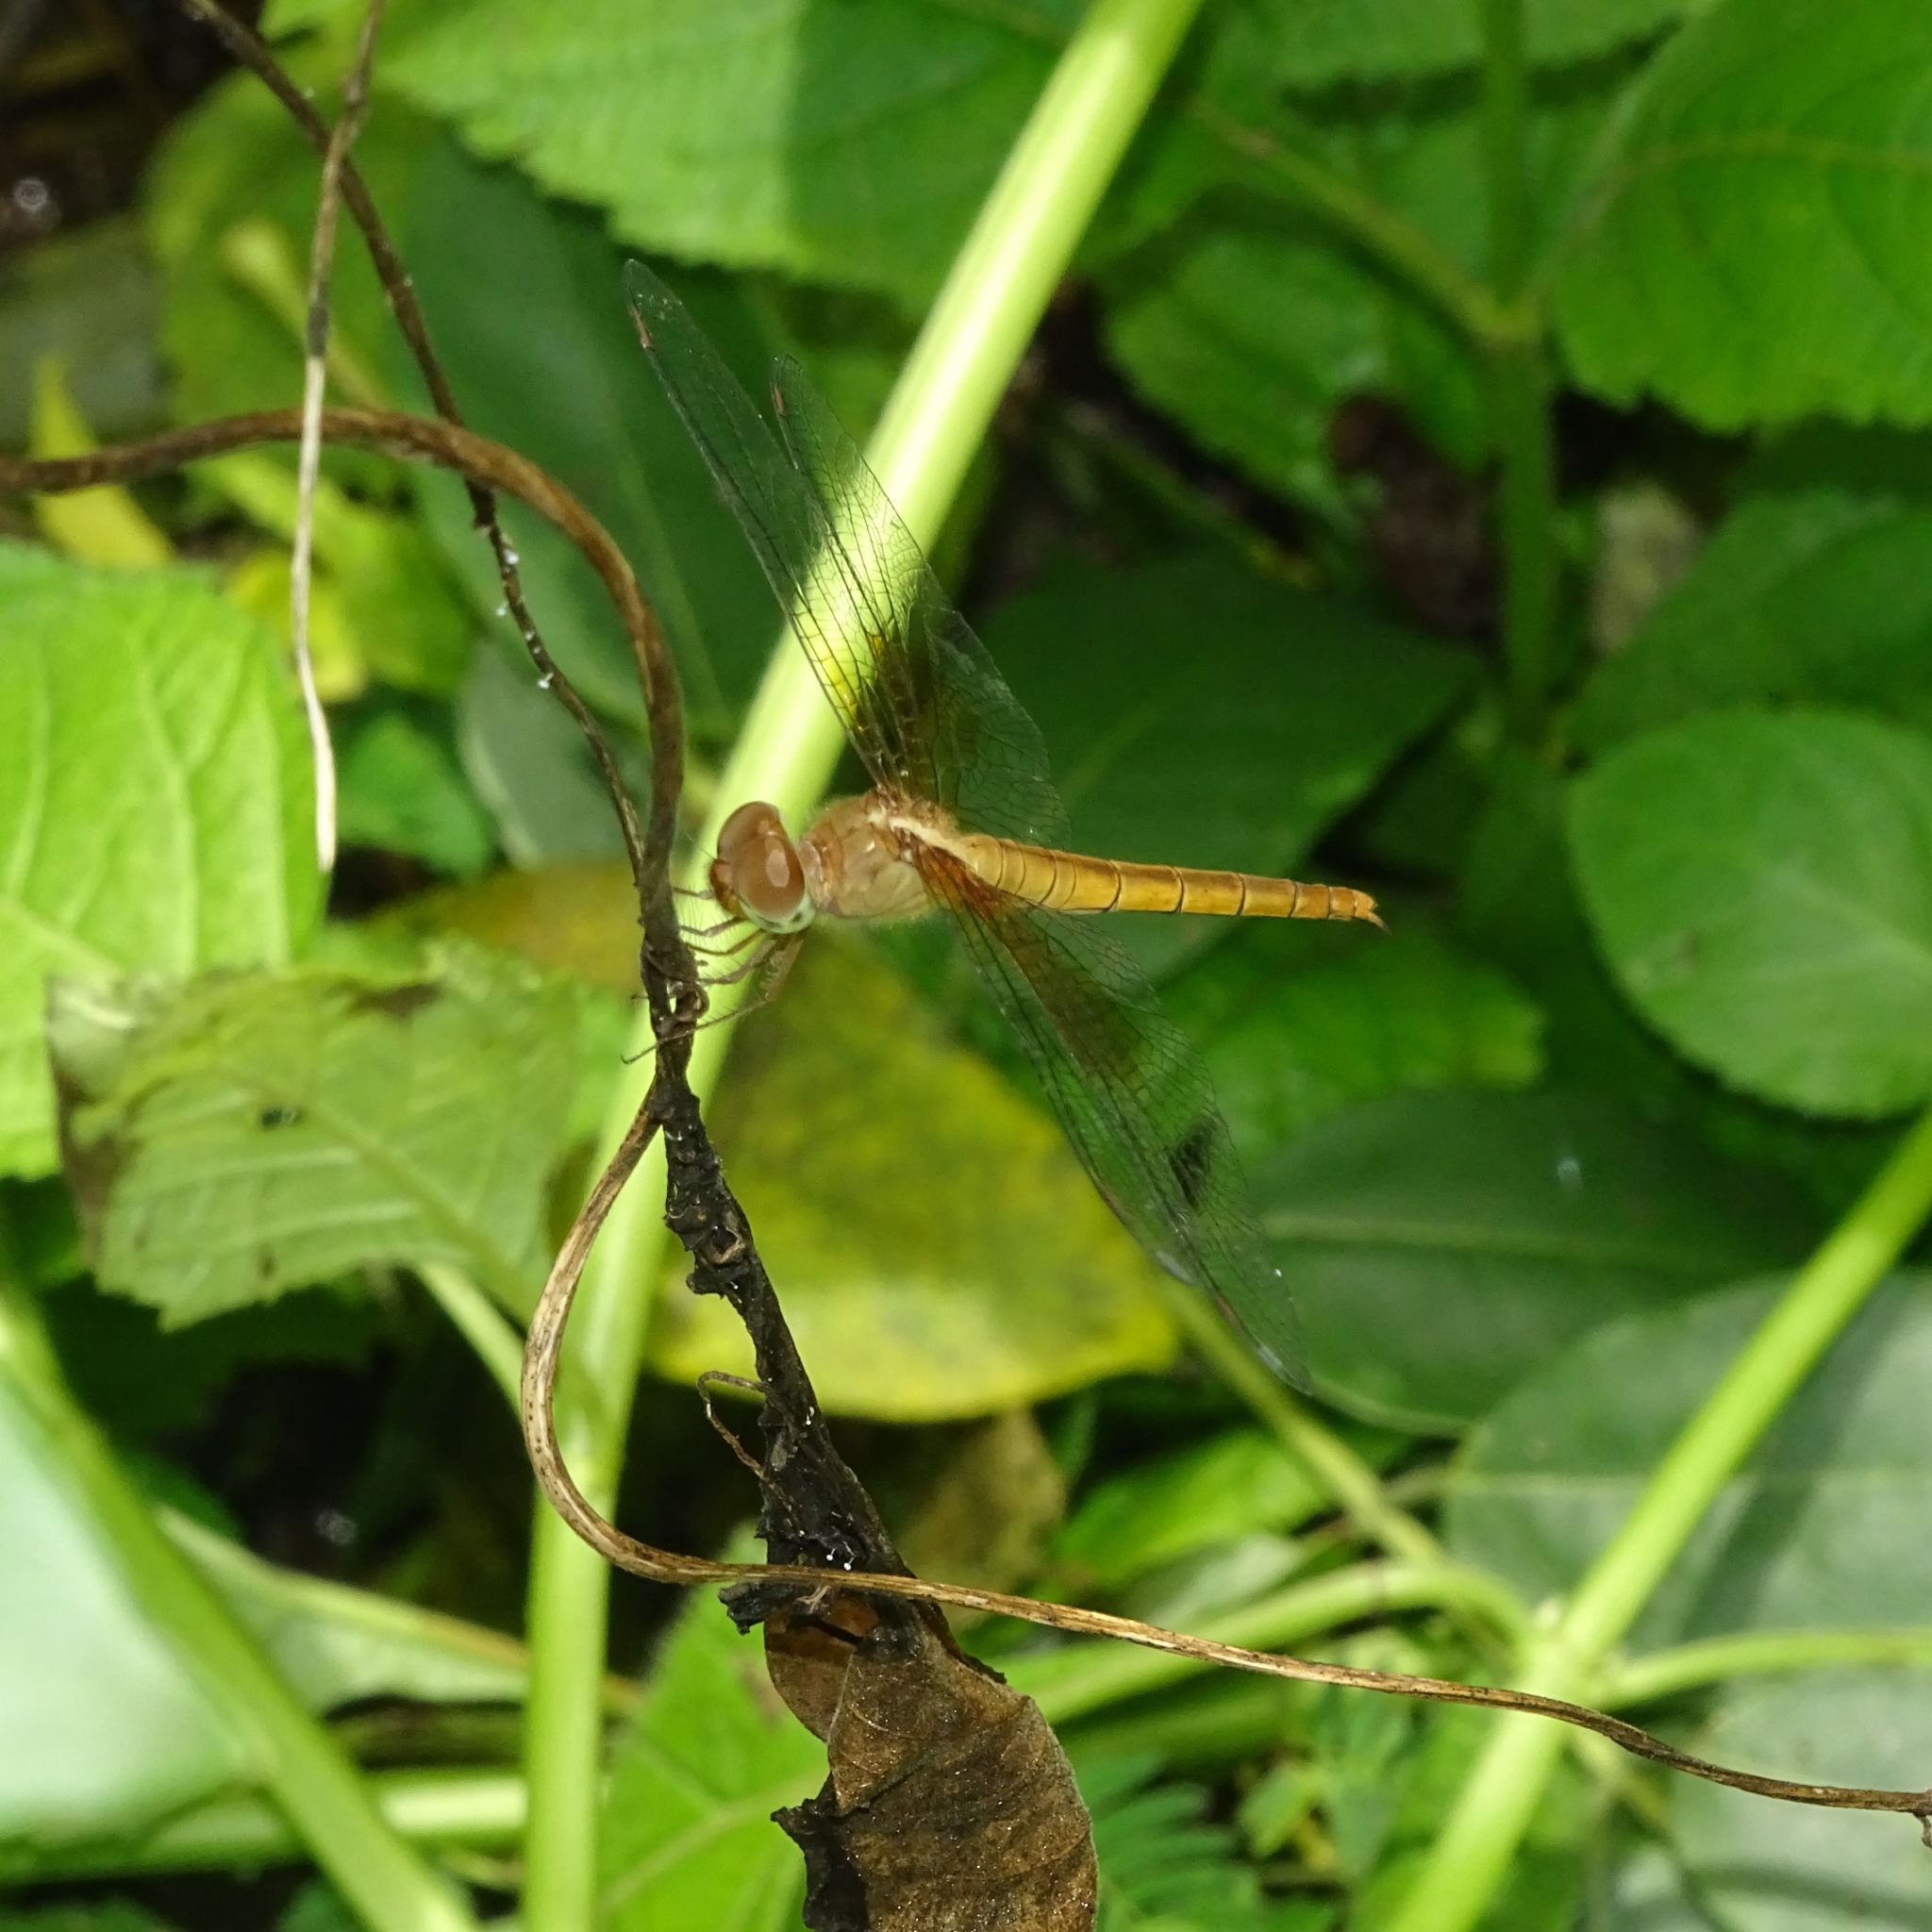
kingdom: Animalia
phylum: Arthropoda
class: Insecta
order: Odonata
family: Libellulidae
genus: Tholymis
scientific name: Tholymis tillarga
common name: Coral-tailed cloud wing
